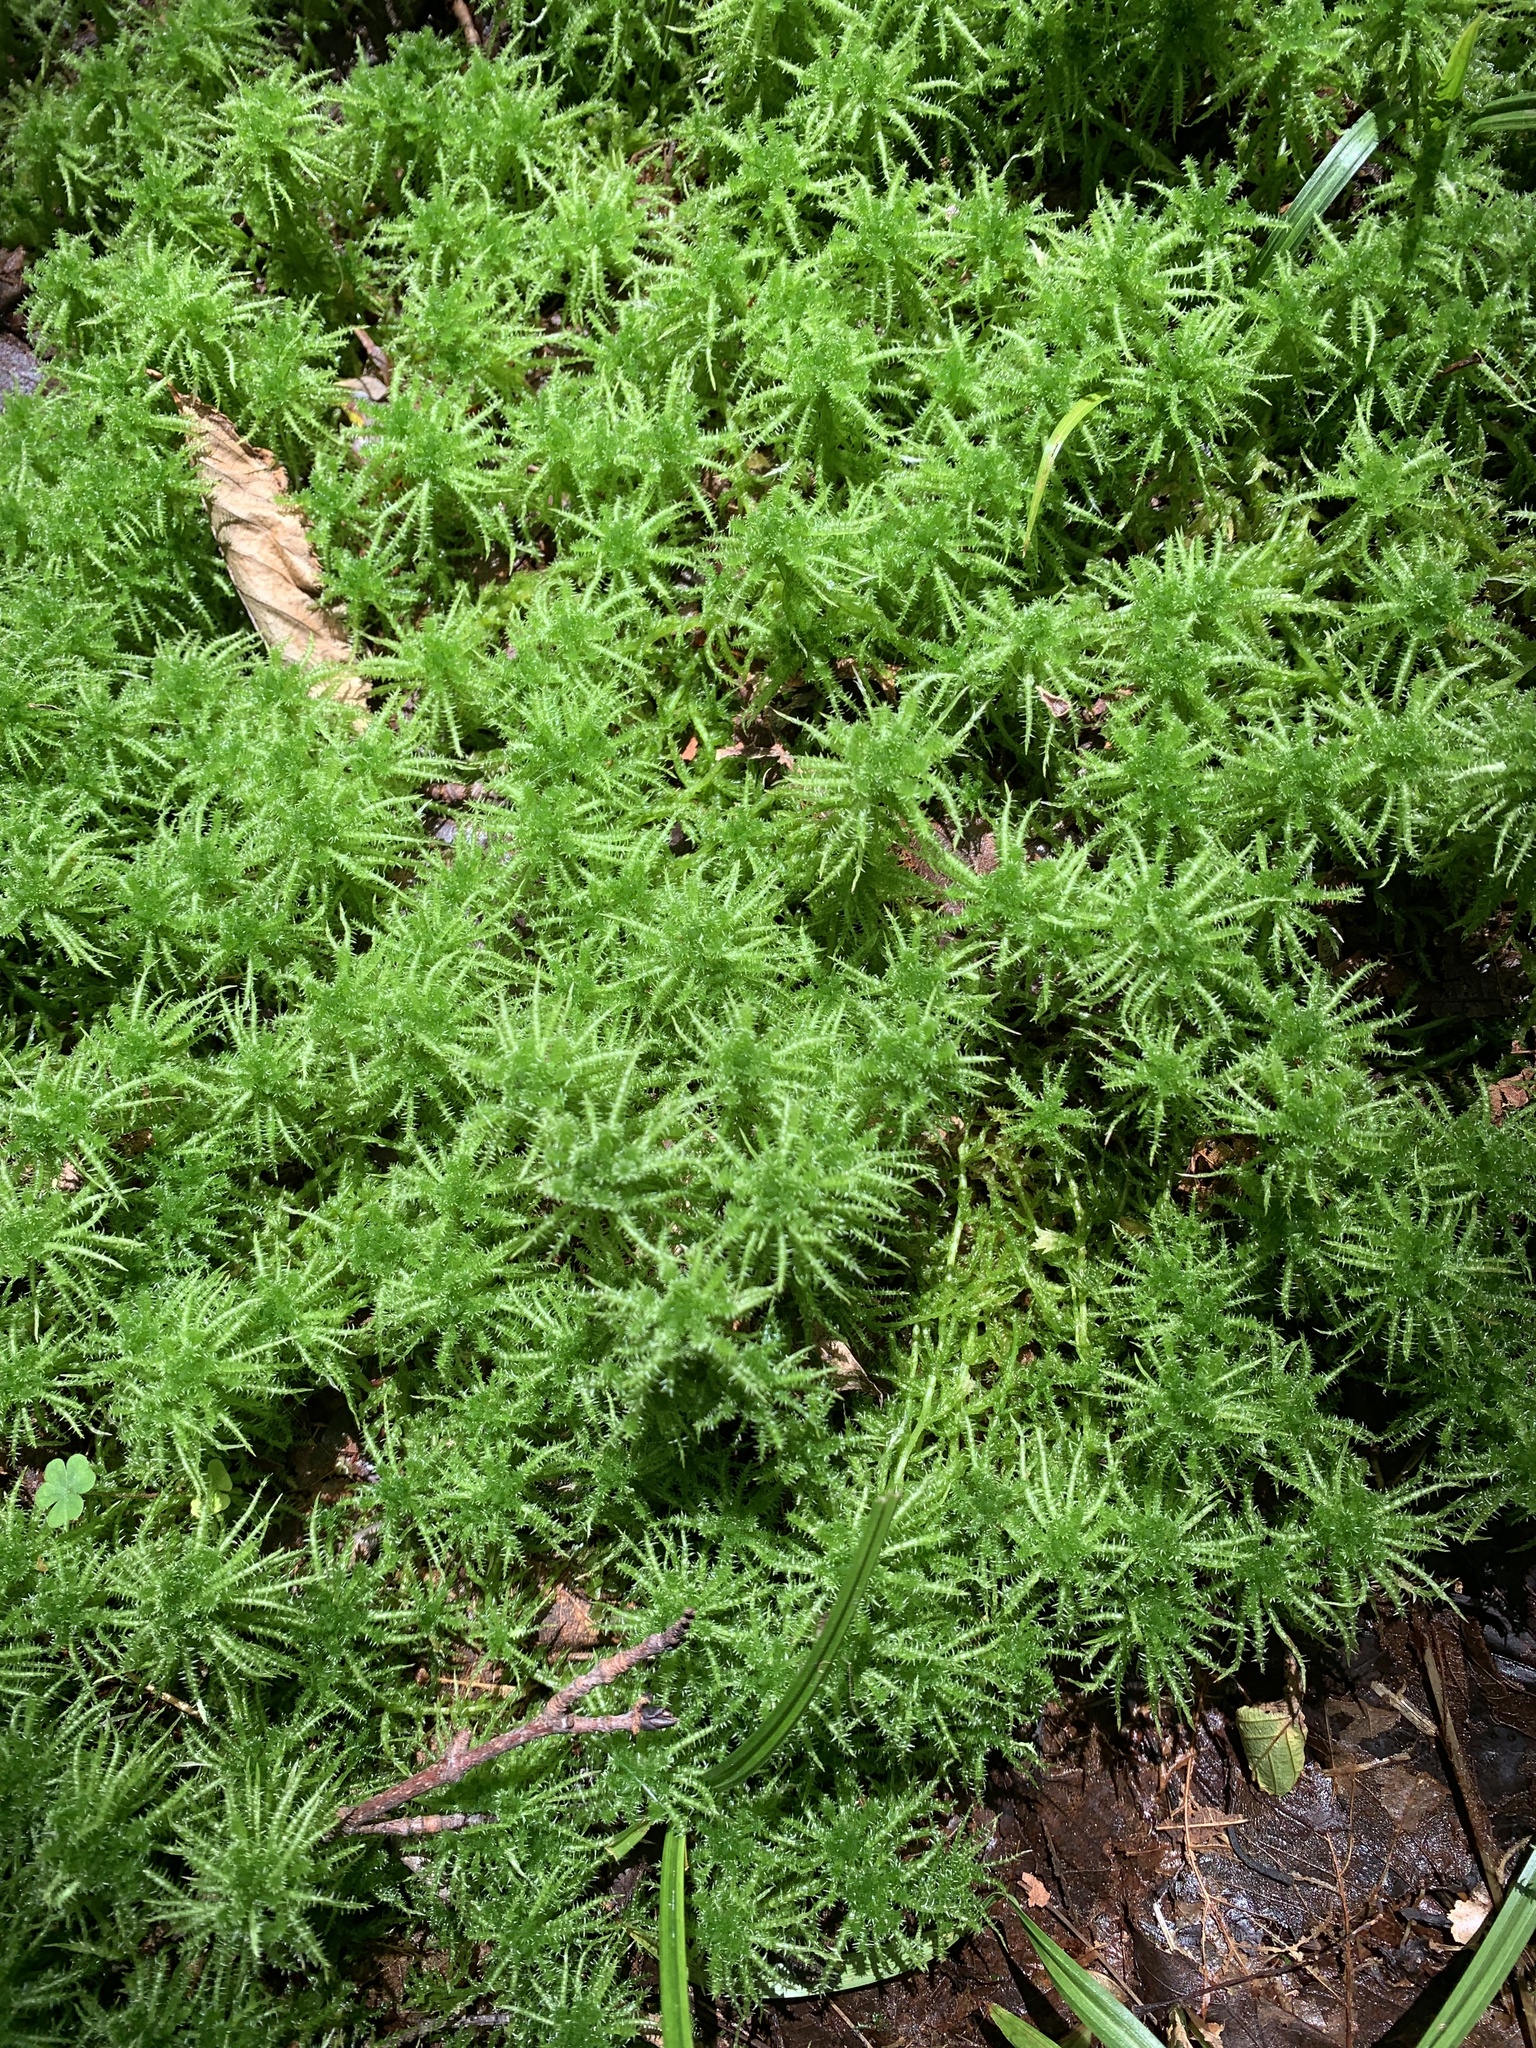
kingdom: Plantae
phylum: Bryophyta
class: Sphagnopsida
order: Sphagnales
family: Sphagnaceae
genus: Sphagnum
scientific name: Sphagnum squarrosum
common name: Shaggy peat moss
